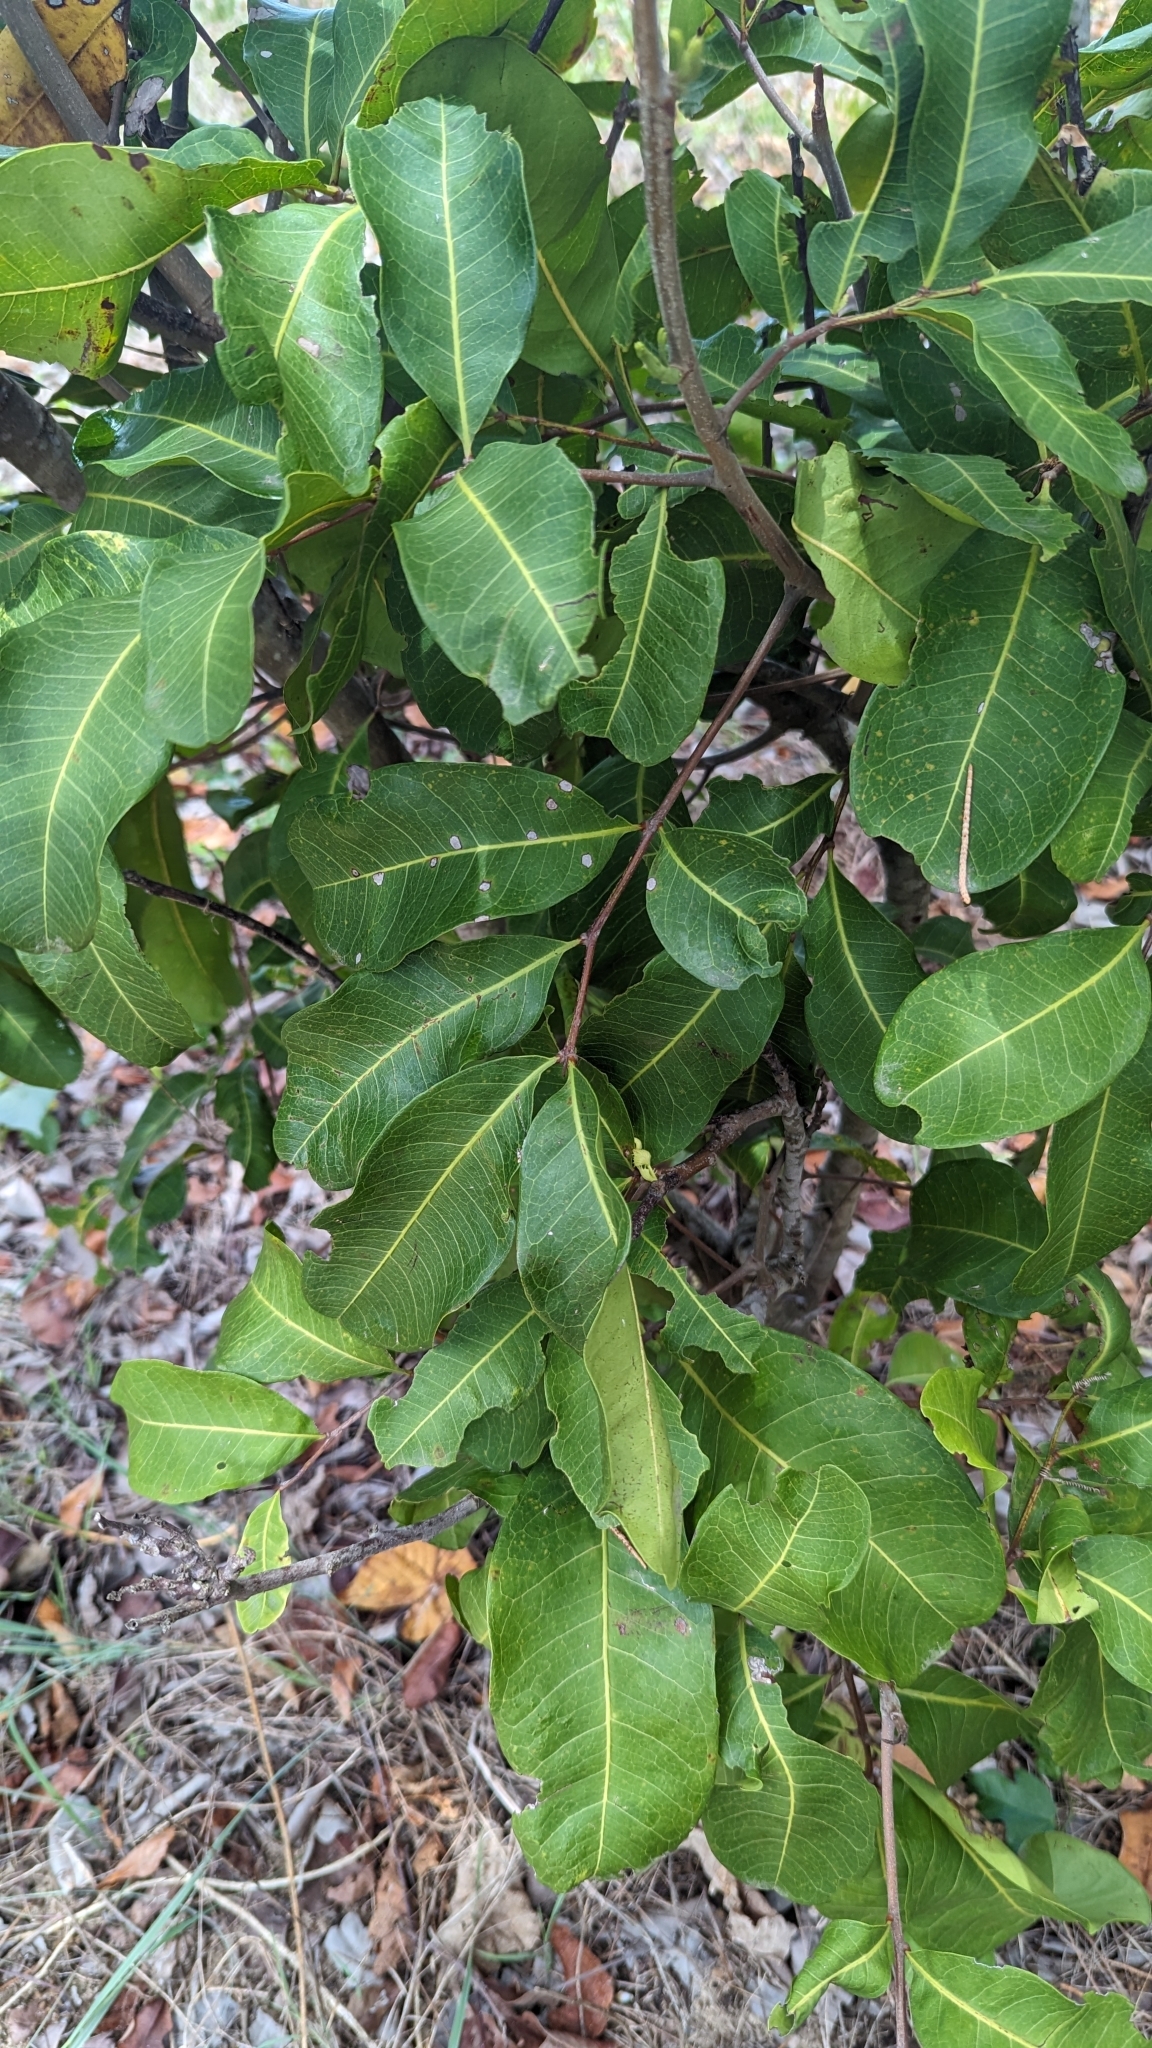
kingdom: Plantae
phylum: Tracheophyta
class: Magnoliopsida
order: Sapindales
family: Sapindaceae
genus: Cupaniopsis
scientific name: Cupaniopsis anacardioides
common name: Carrotwood
